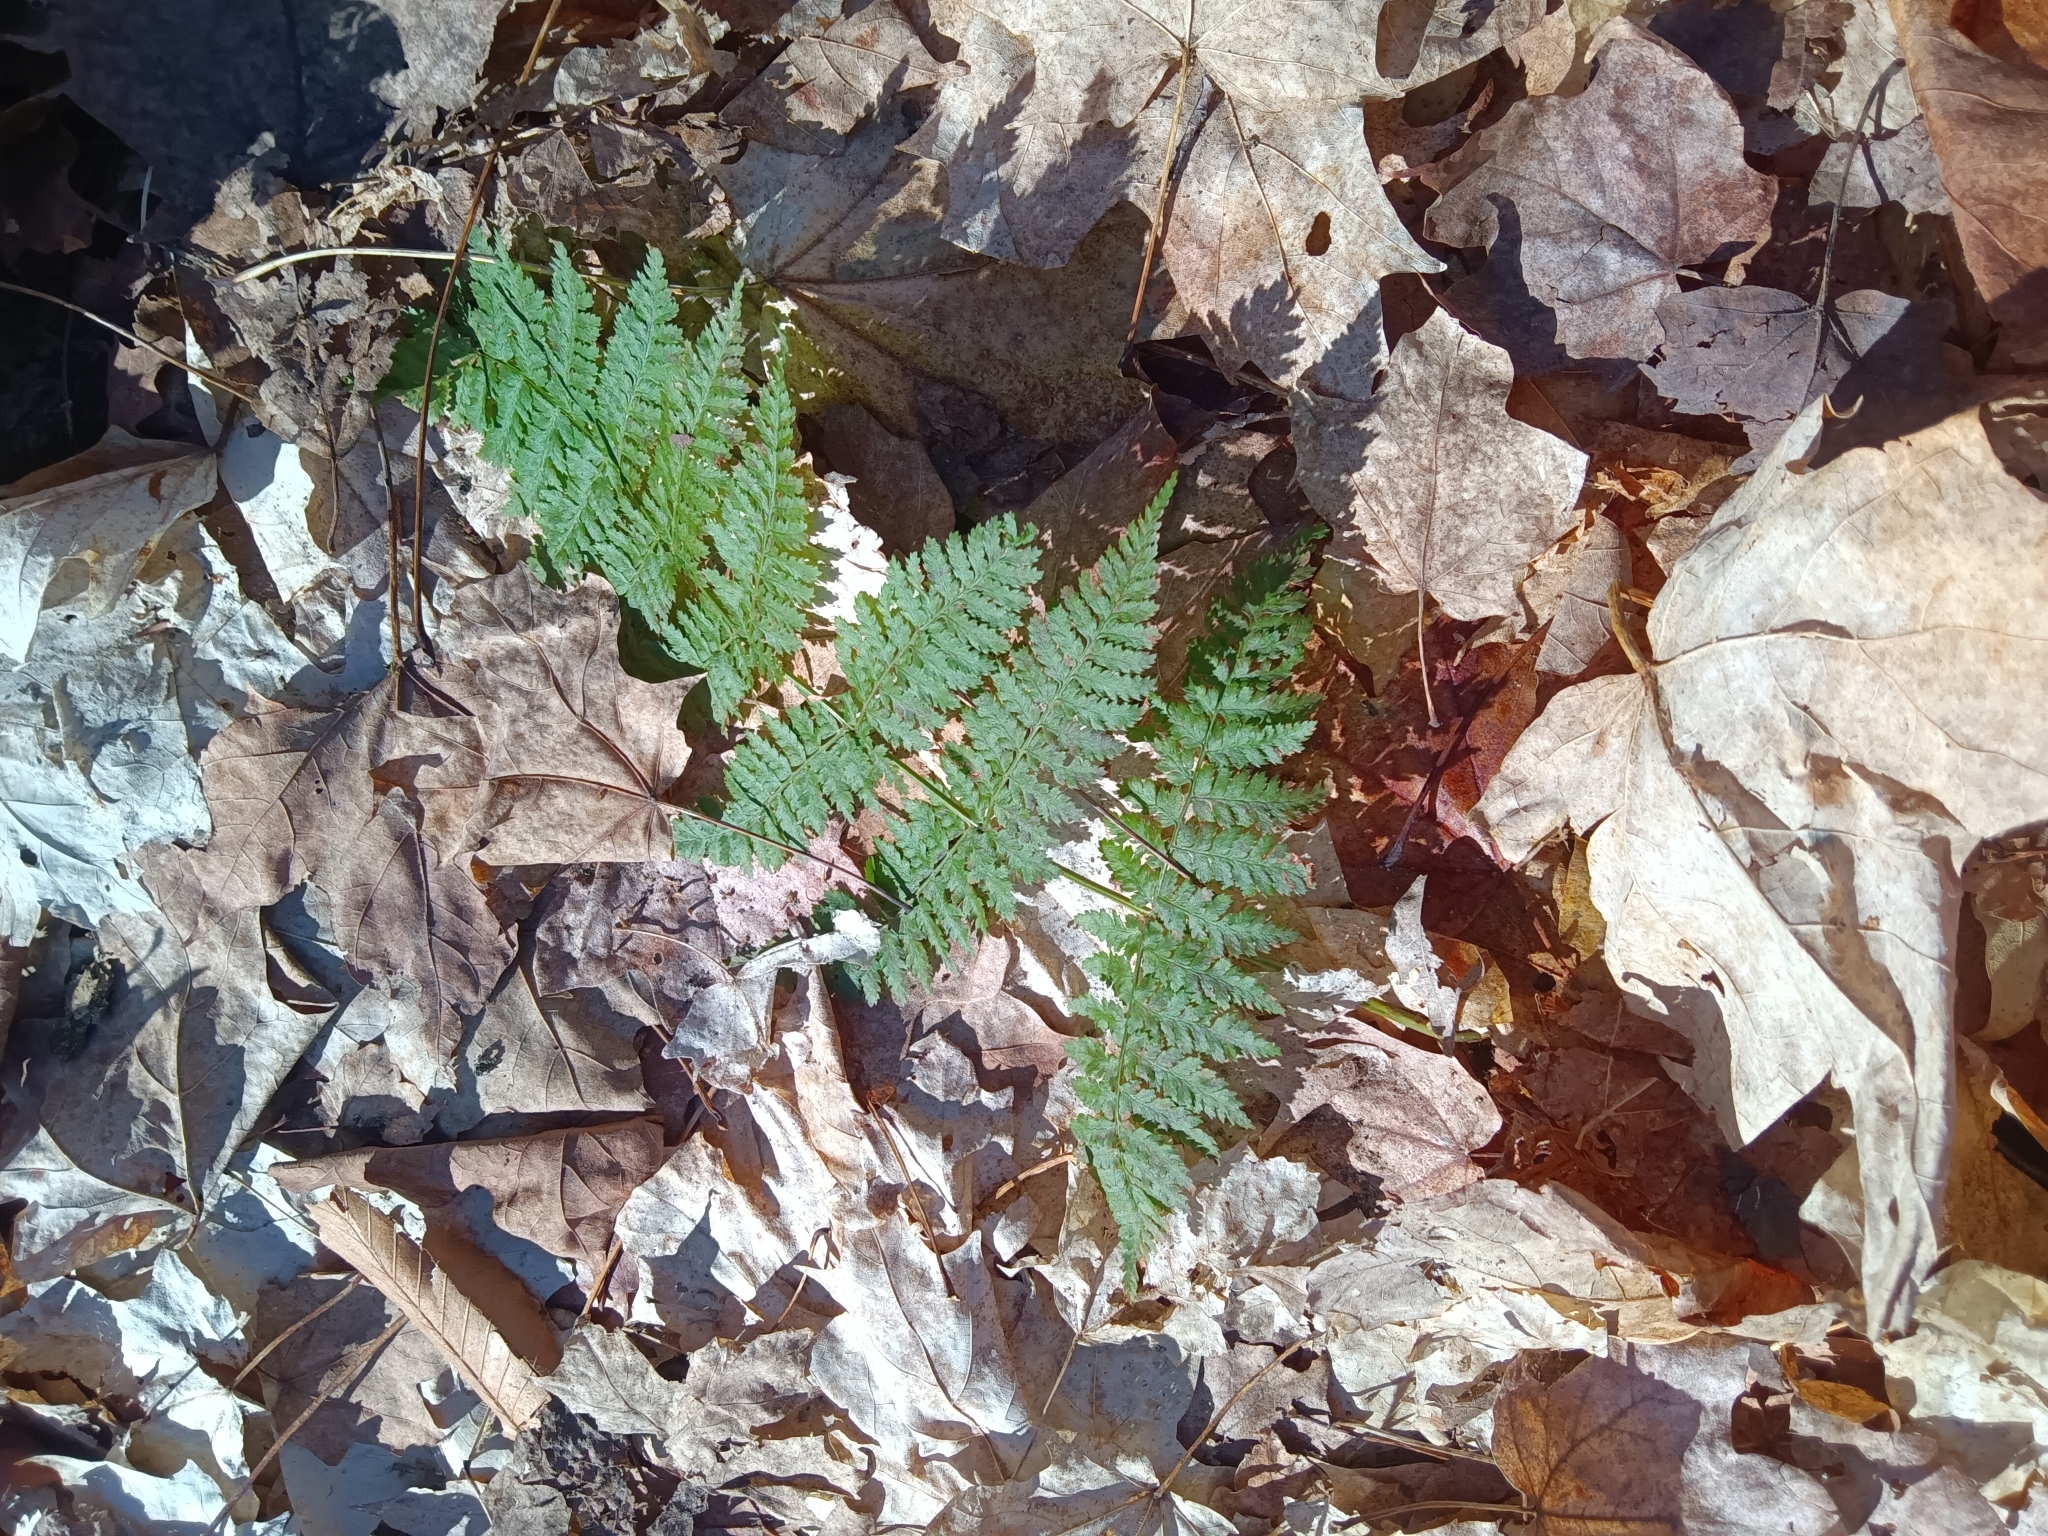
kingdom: Plantae
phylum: Tracheophyta
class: Polypodiopsida
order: Polypodiales
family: Dryopteridaceae
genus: Dryopteris
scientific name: Dryopteris intermedia
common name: Evergreen wood fern
